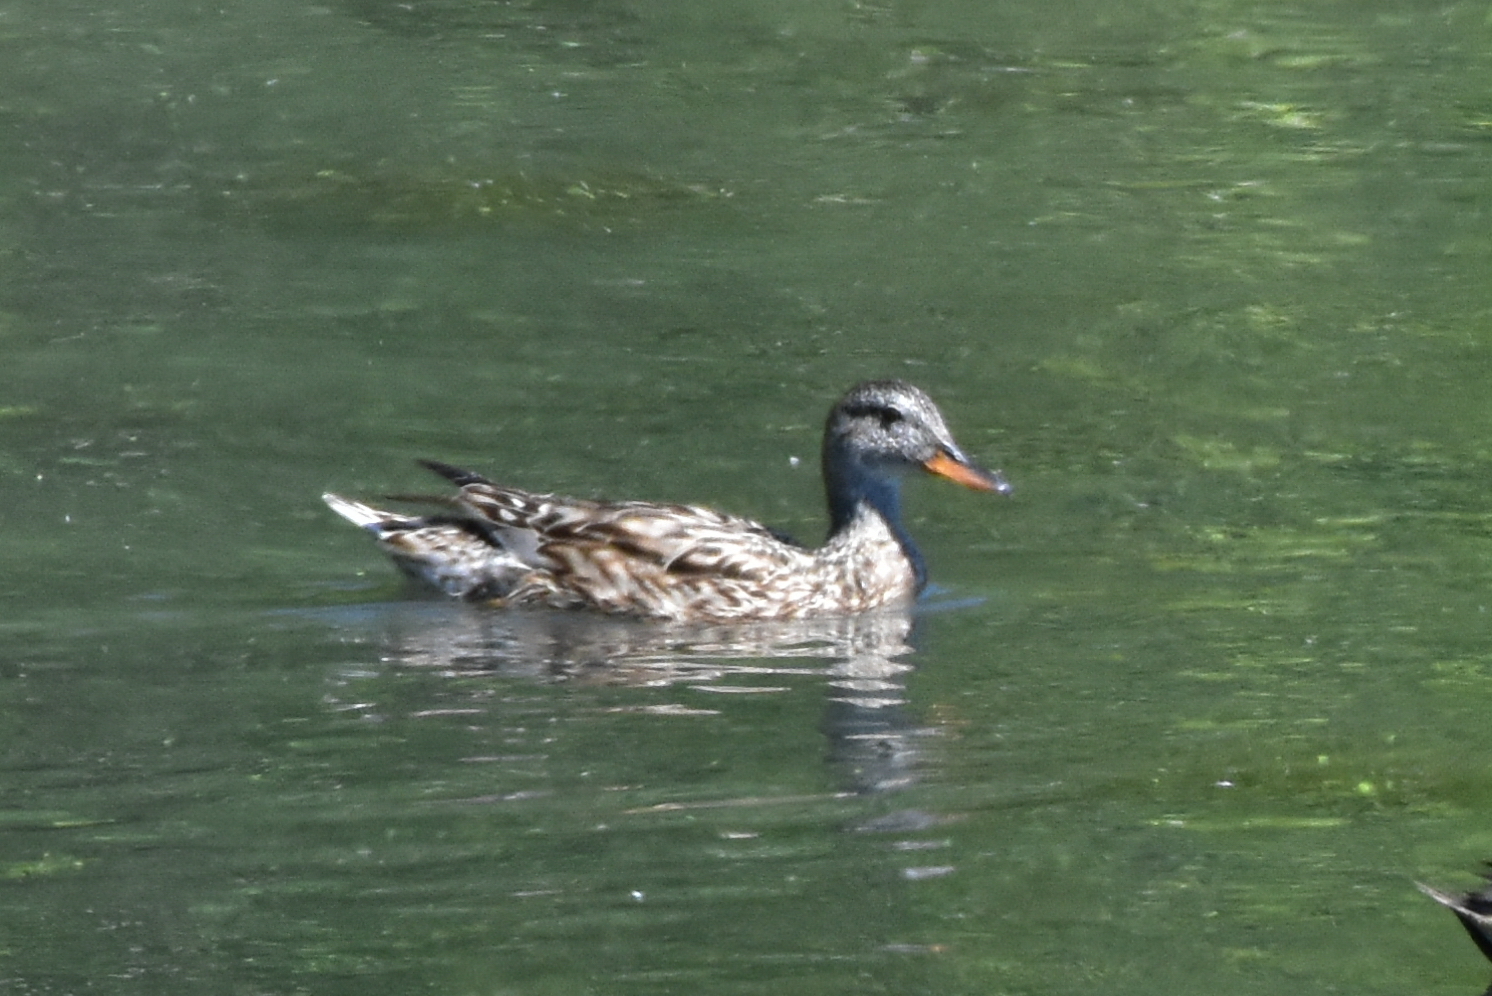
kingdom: Animalia
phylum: Chordata
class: Aves
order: Anseriformes
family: Anatidae
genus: Mareca
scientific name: Mareca strepera
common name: Gadwall
